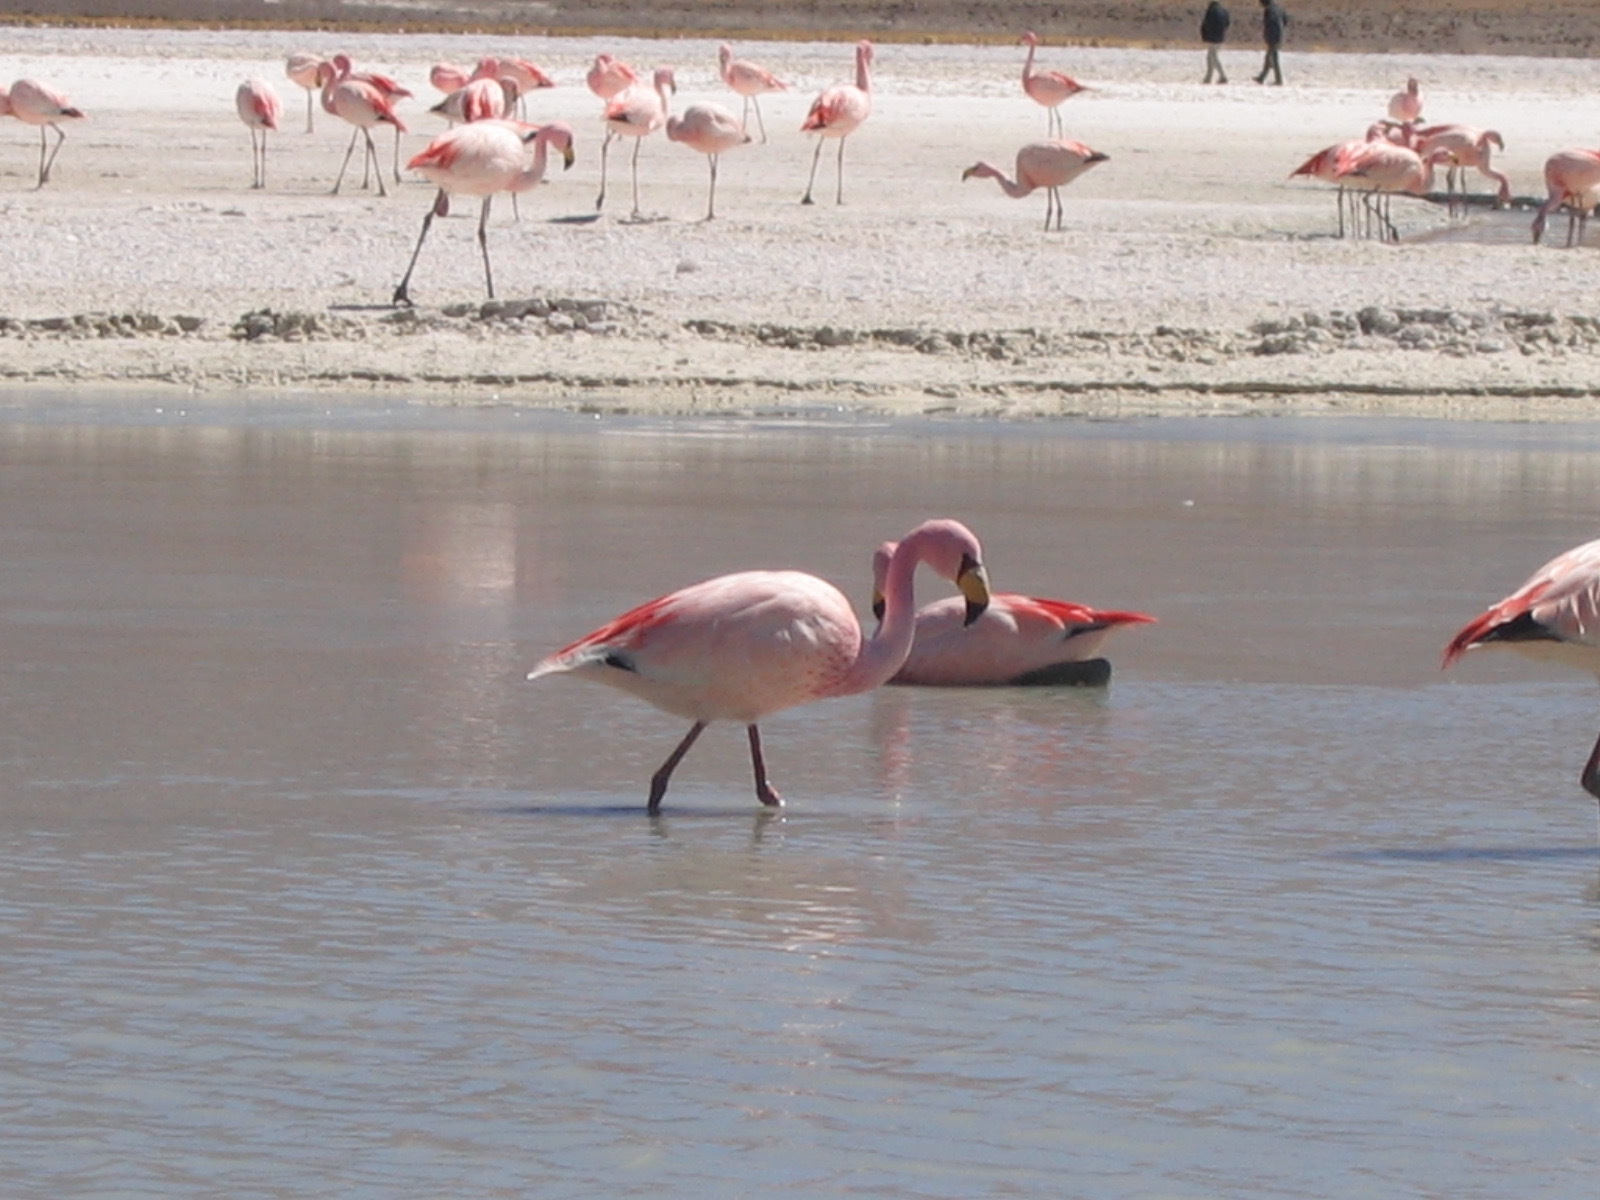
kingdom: Animalia
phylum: Chordata
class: Aves
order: Phoenicopteriformes
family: Phoenicopteridae
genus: Phoenicoparrus
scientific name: Phoenicoparrus jamesi
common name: James's flamingo
